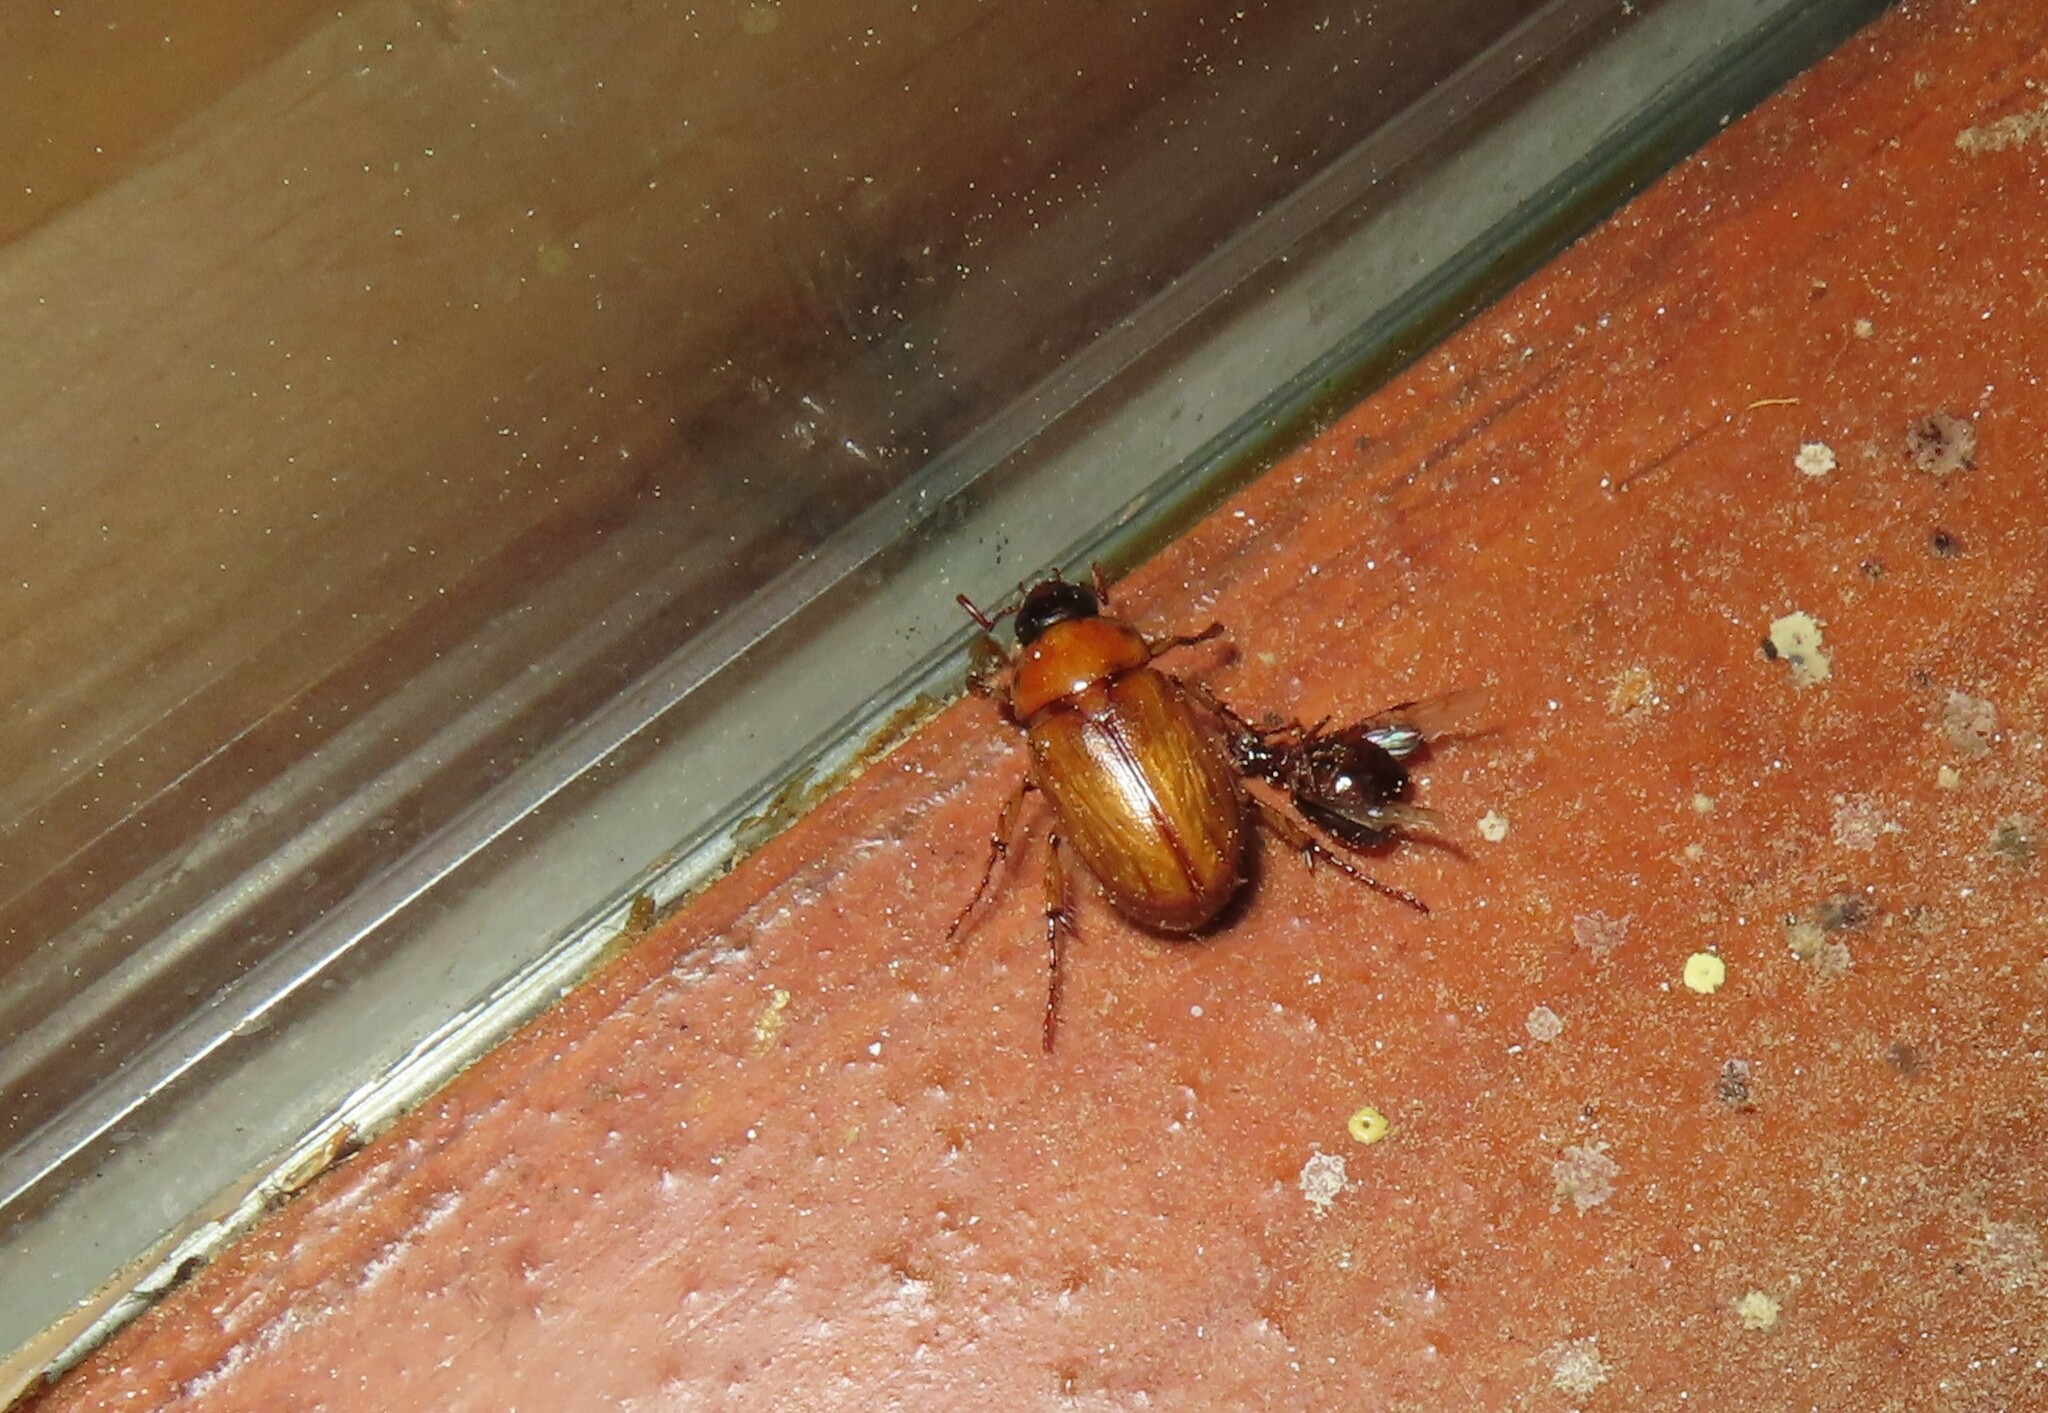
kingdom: Animalia
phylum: Arthropoda
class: Insecta
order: Coleoptera
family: Scarabaeidae
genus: Cyclocephala
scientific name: Cyclocephala lurida
